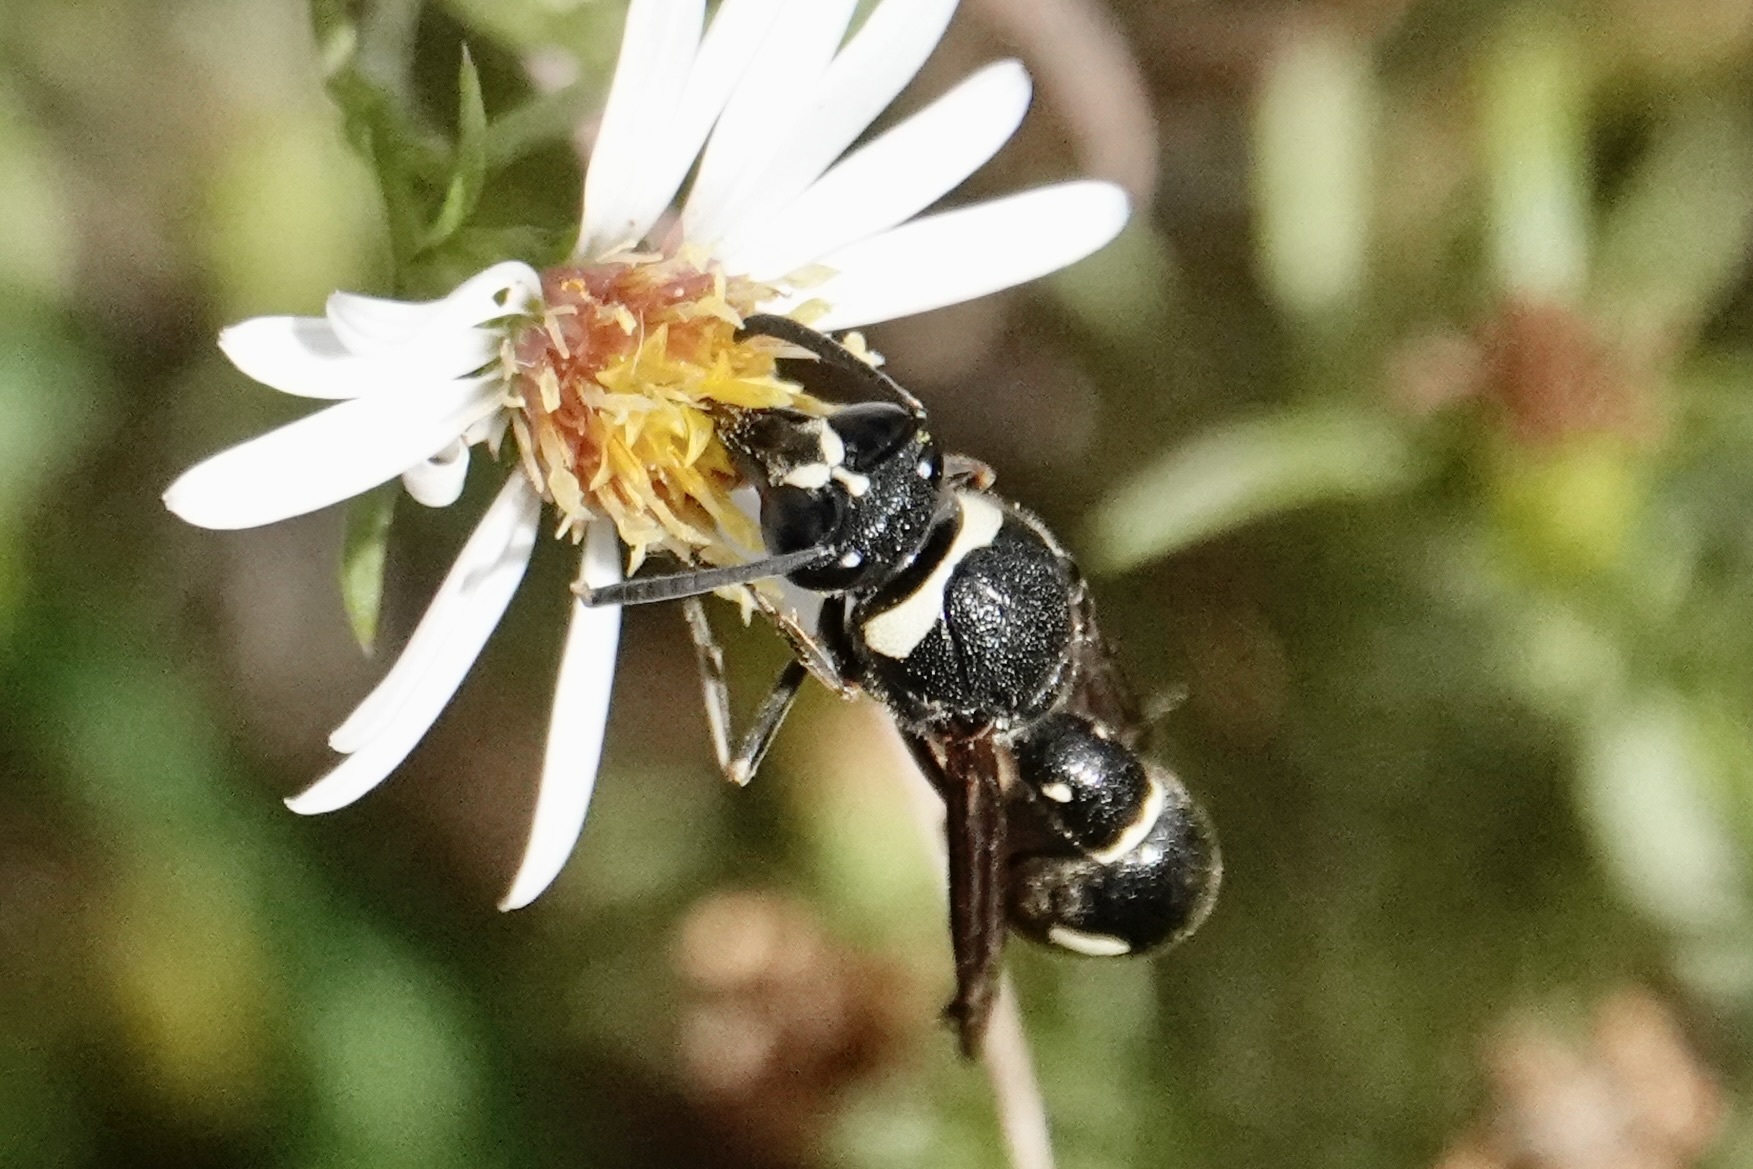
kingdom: Animalia
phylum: Arthropoda
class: Insecta
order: Hymenoptera
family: Vespidae
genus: Eumenes
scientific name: Eumenes fraternus
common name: Fraternal potter wasp
